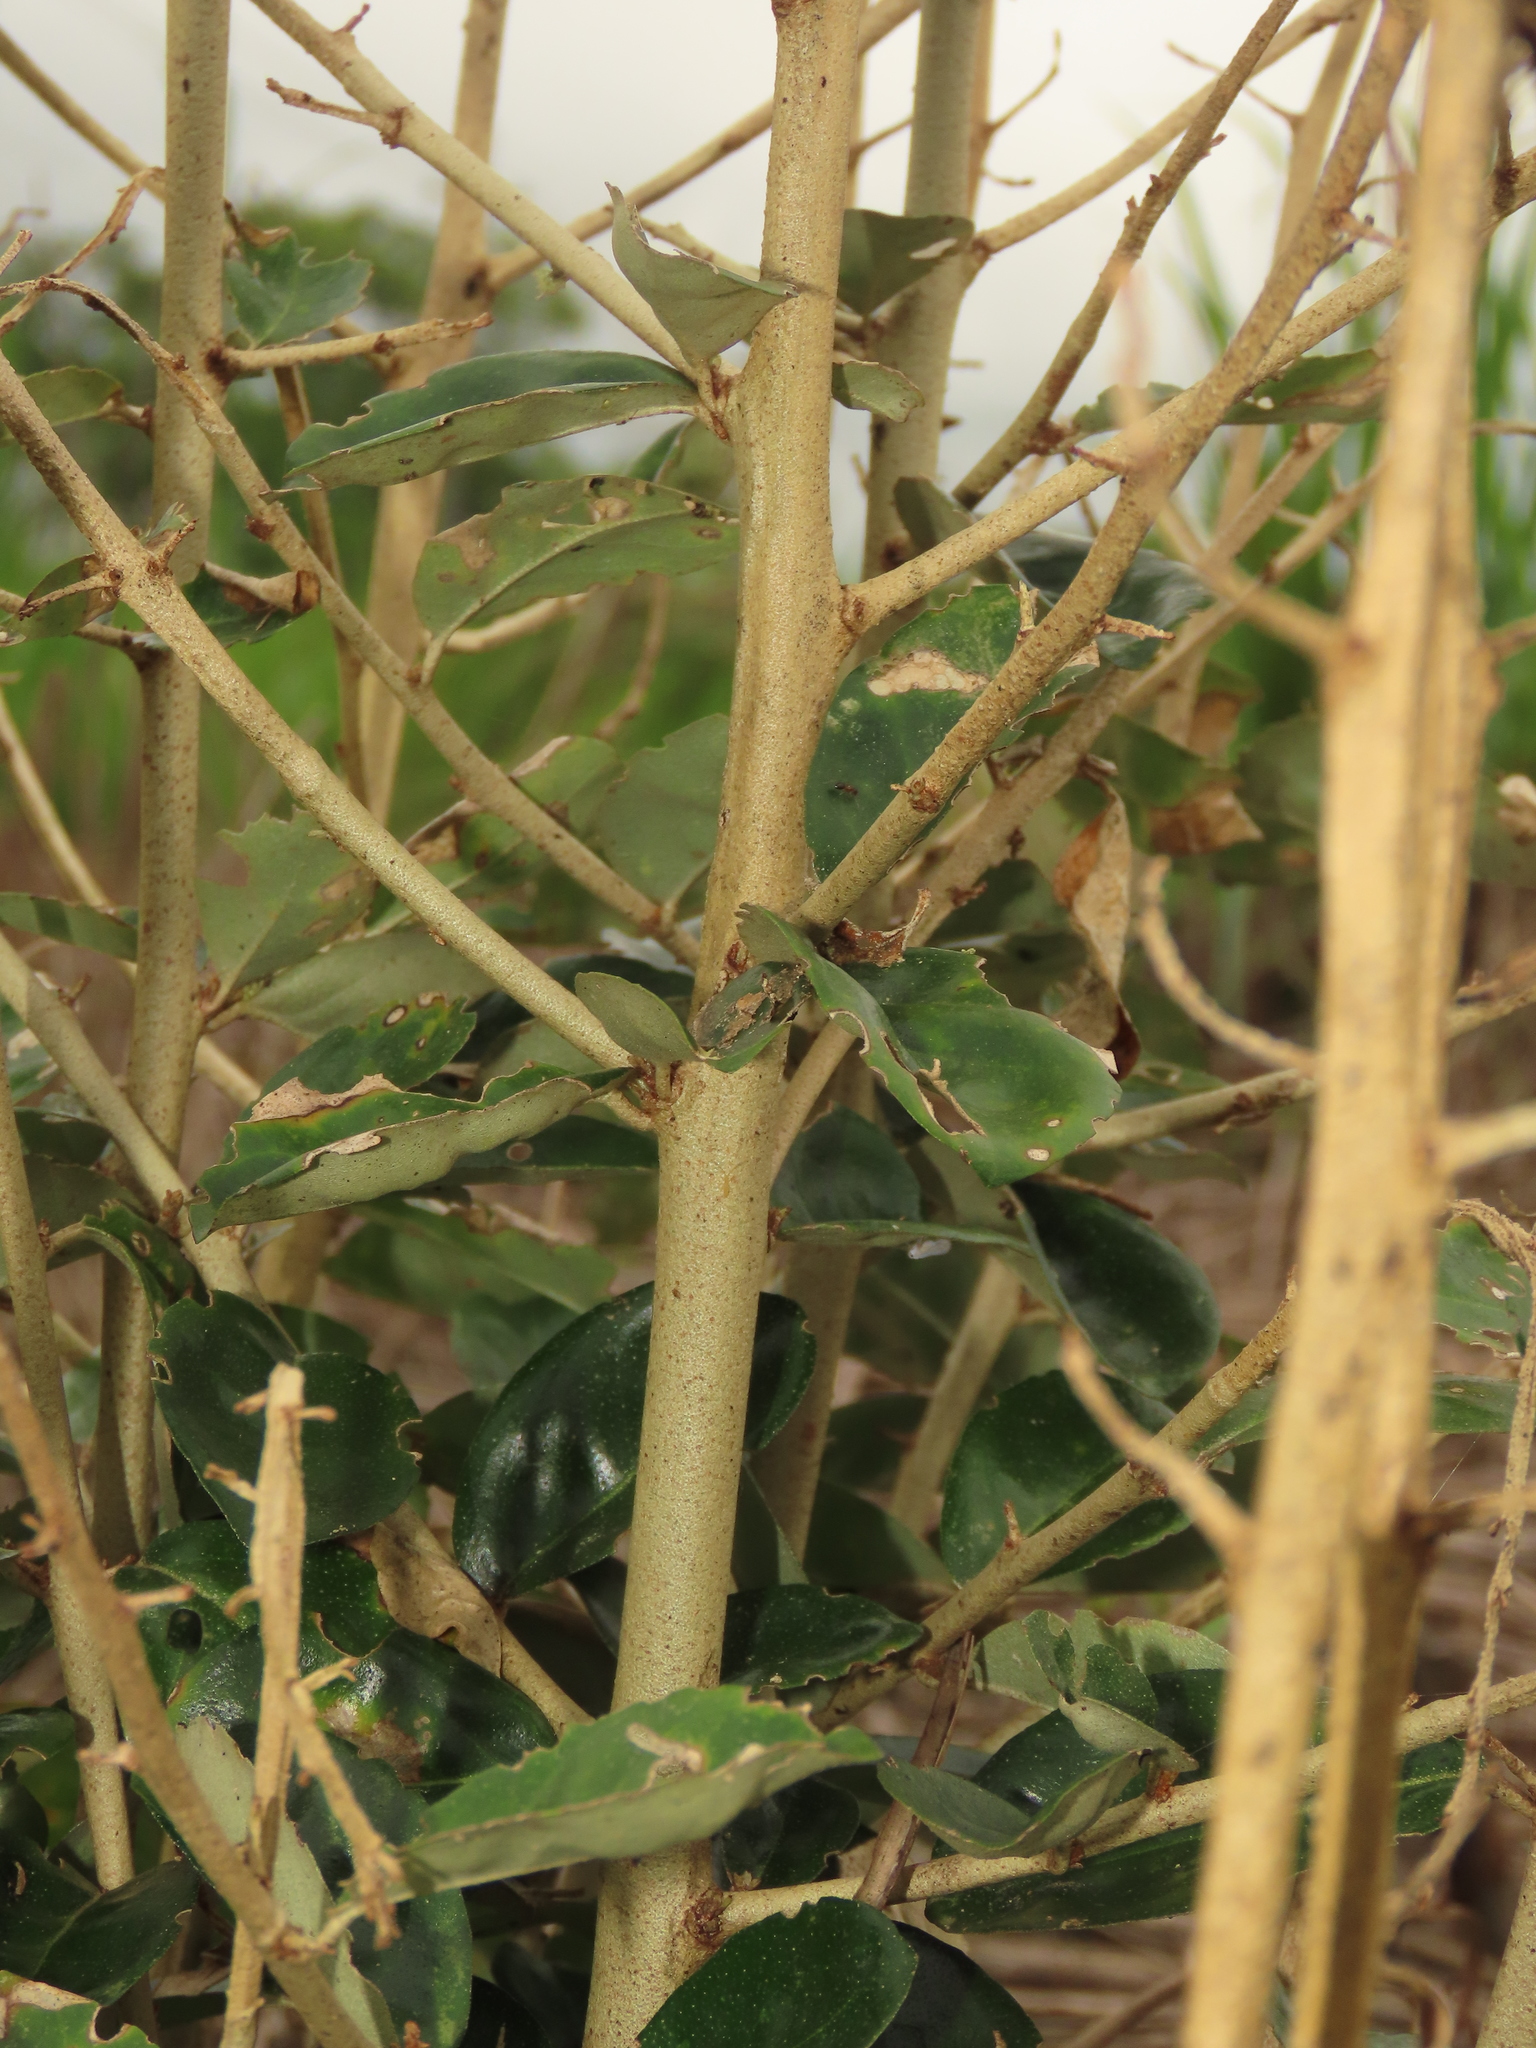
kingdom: Plantae
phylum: Tracheophyta
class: Magnoliopsida
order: Rosales
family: Elaeagnaceae
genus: Elaeagnus
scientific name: Elaeagnus oldhamii
